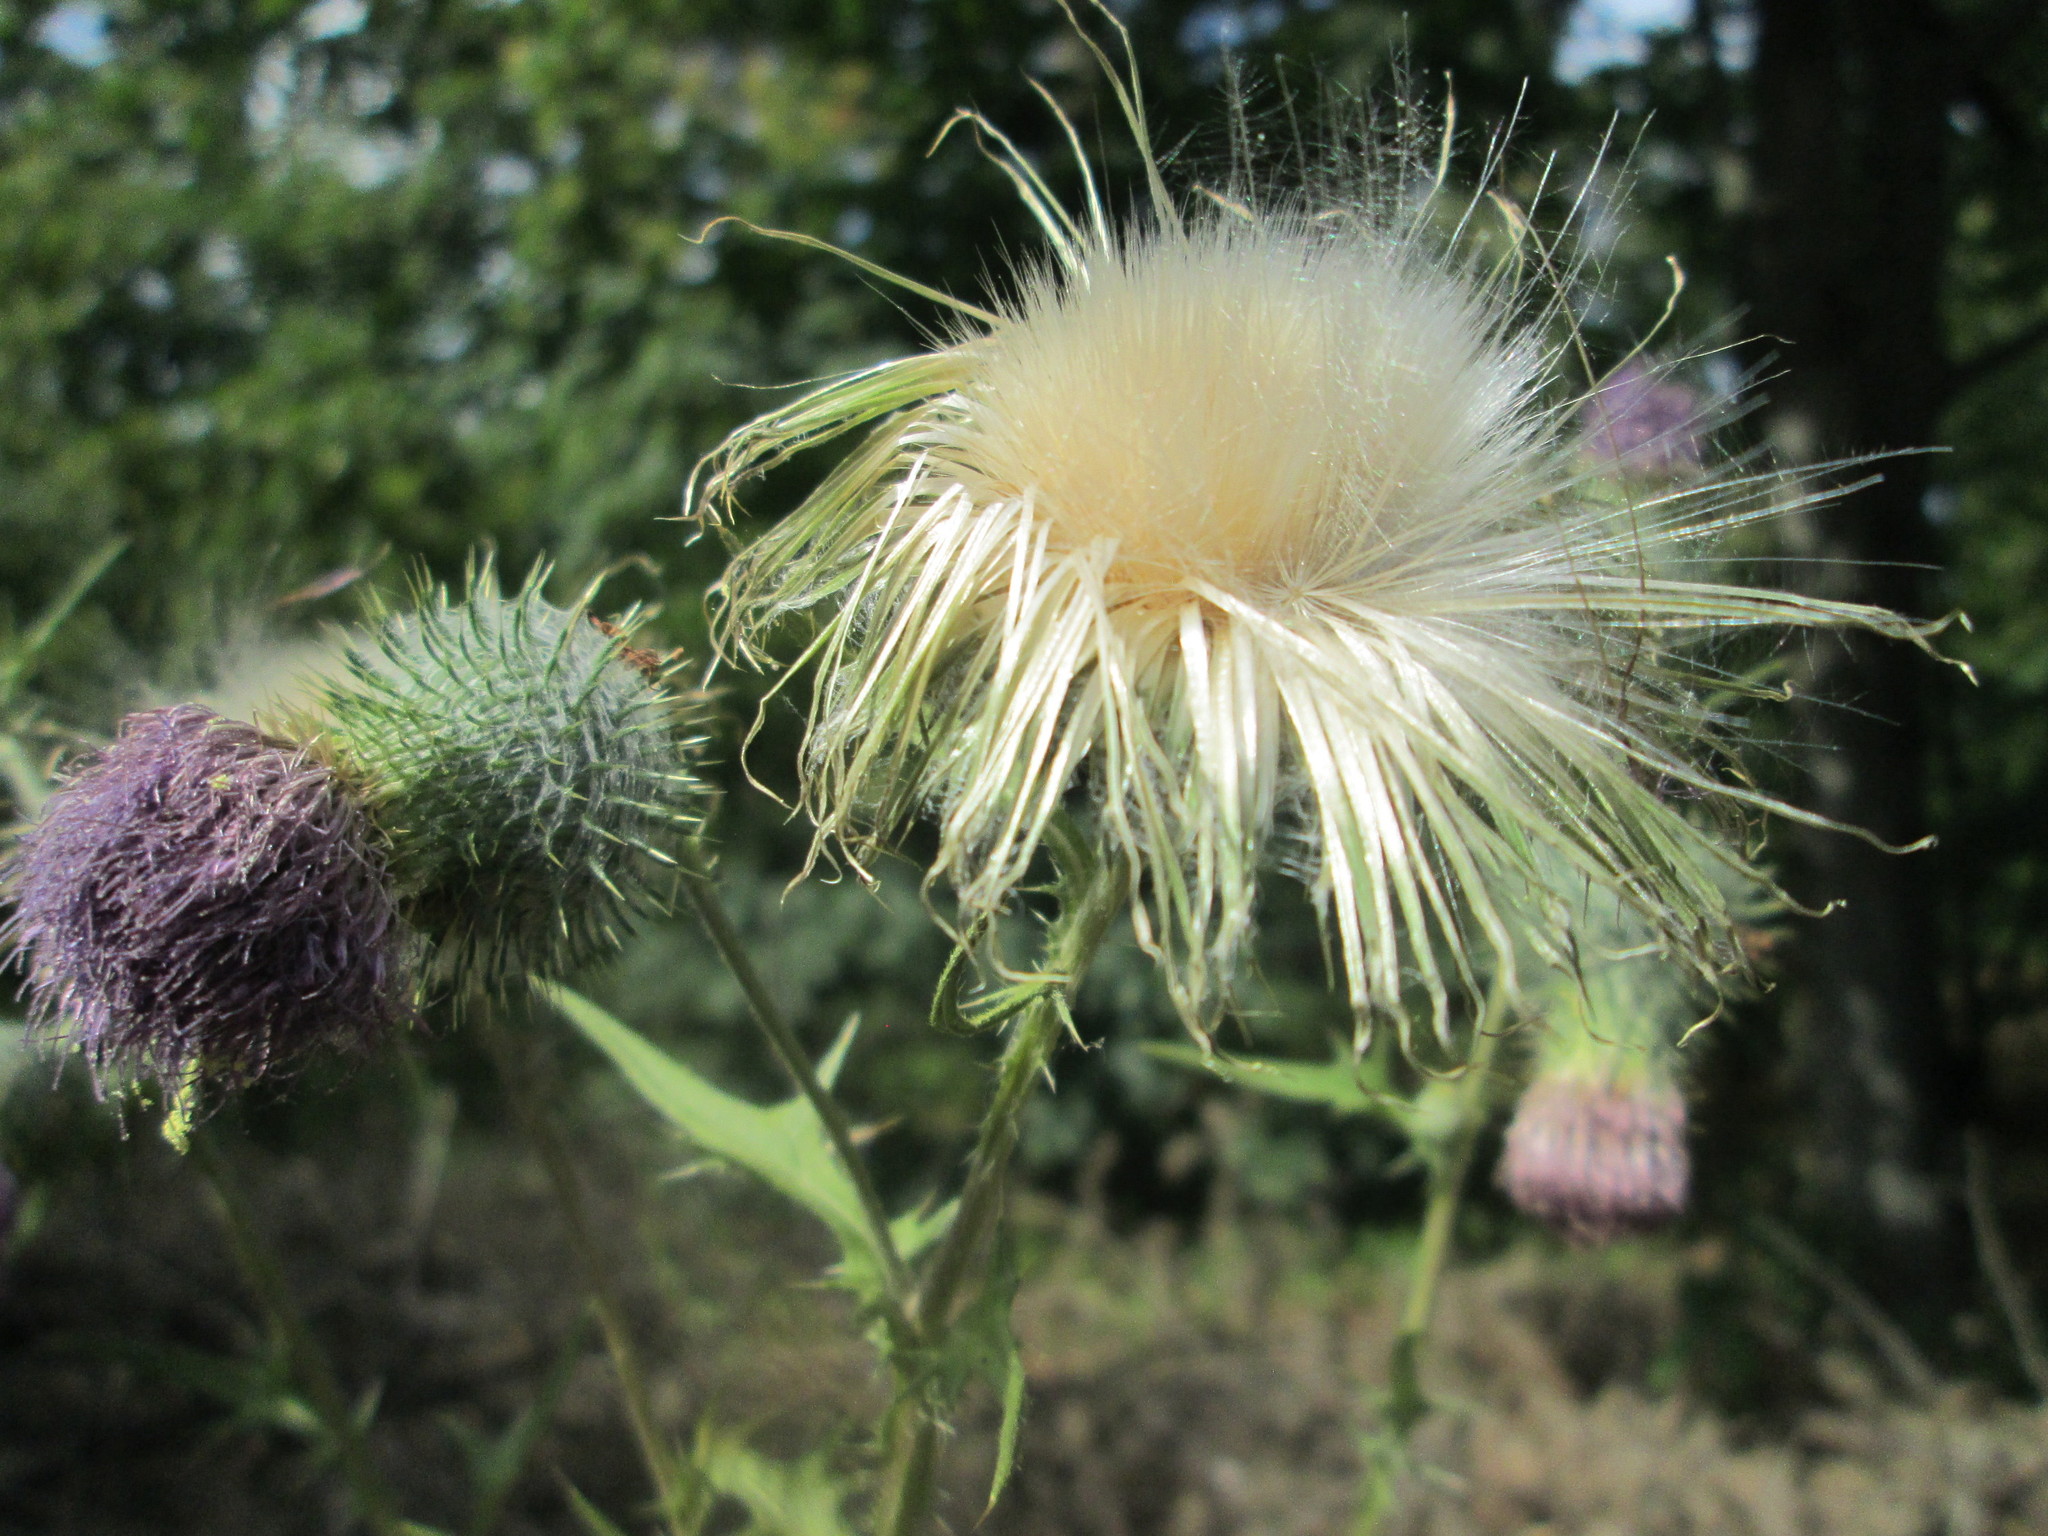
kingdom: Plantae
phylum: Tracheophyta
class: Magnoliopsida
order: Asterales
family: Asteraceae
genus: Cirsium
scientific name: Cirsium vulgare
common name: Bull thistle
